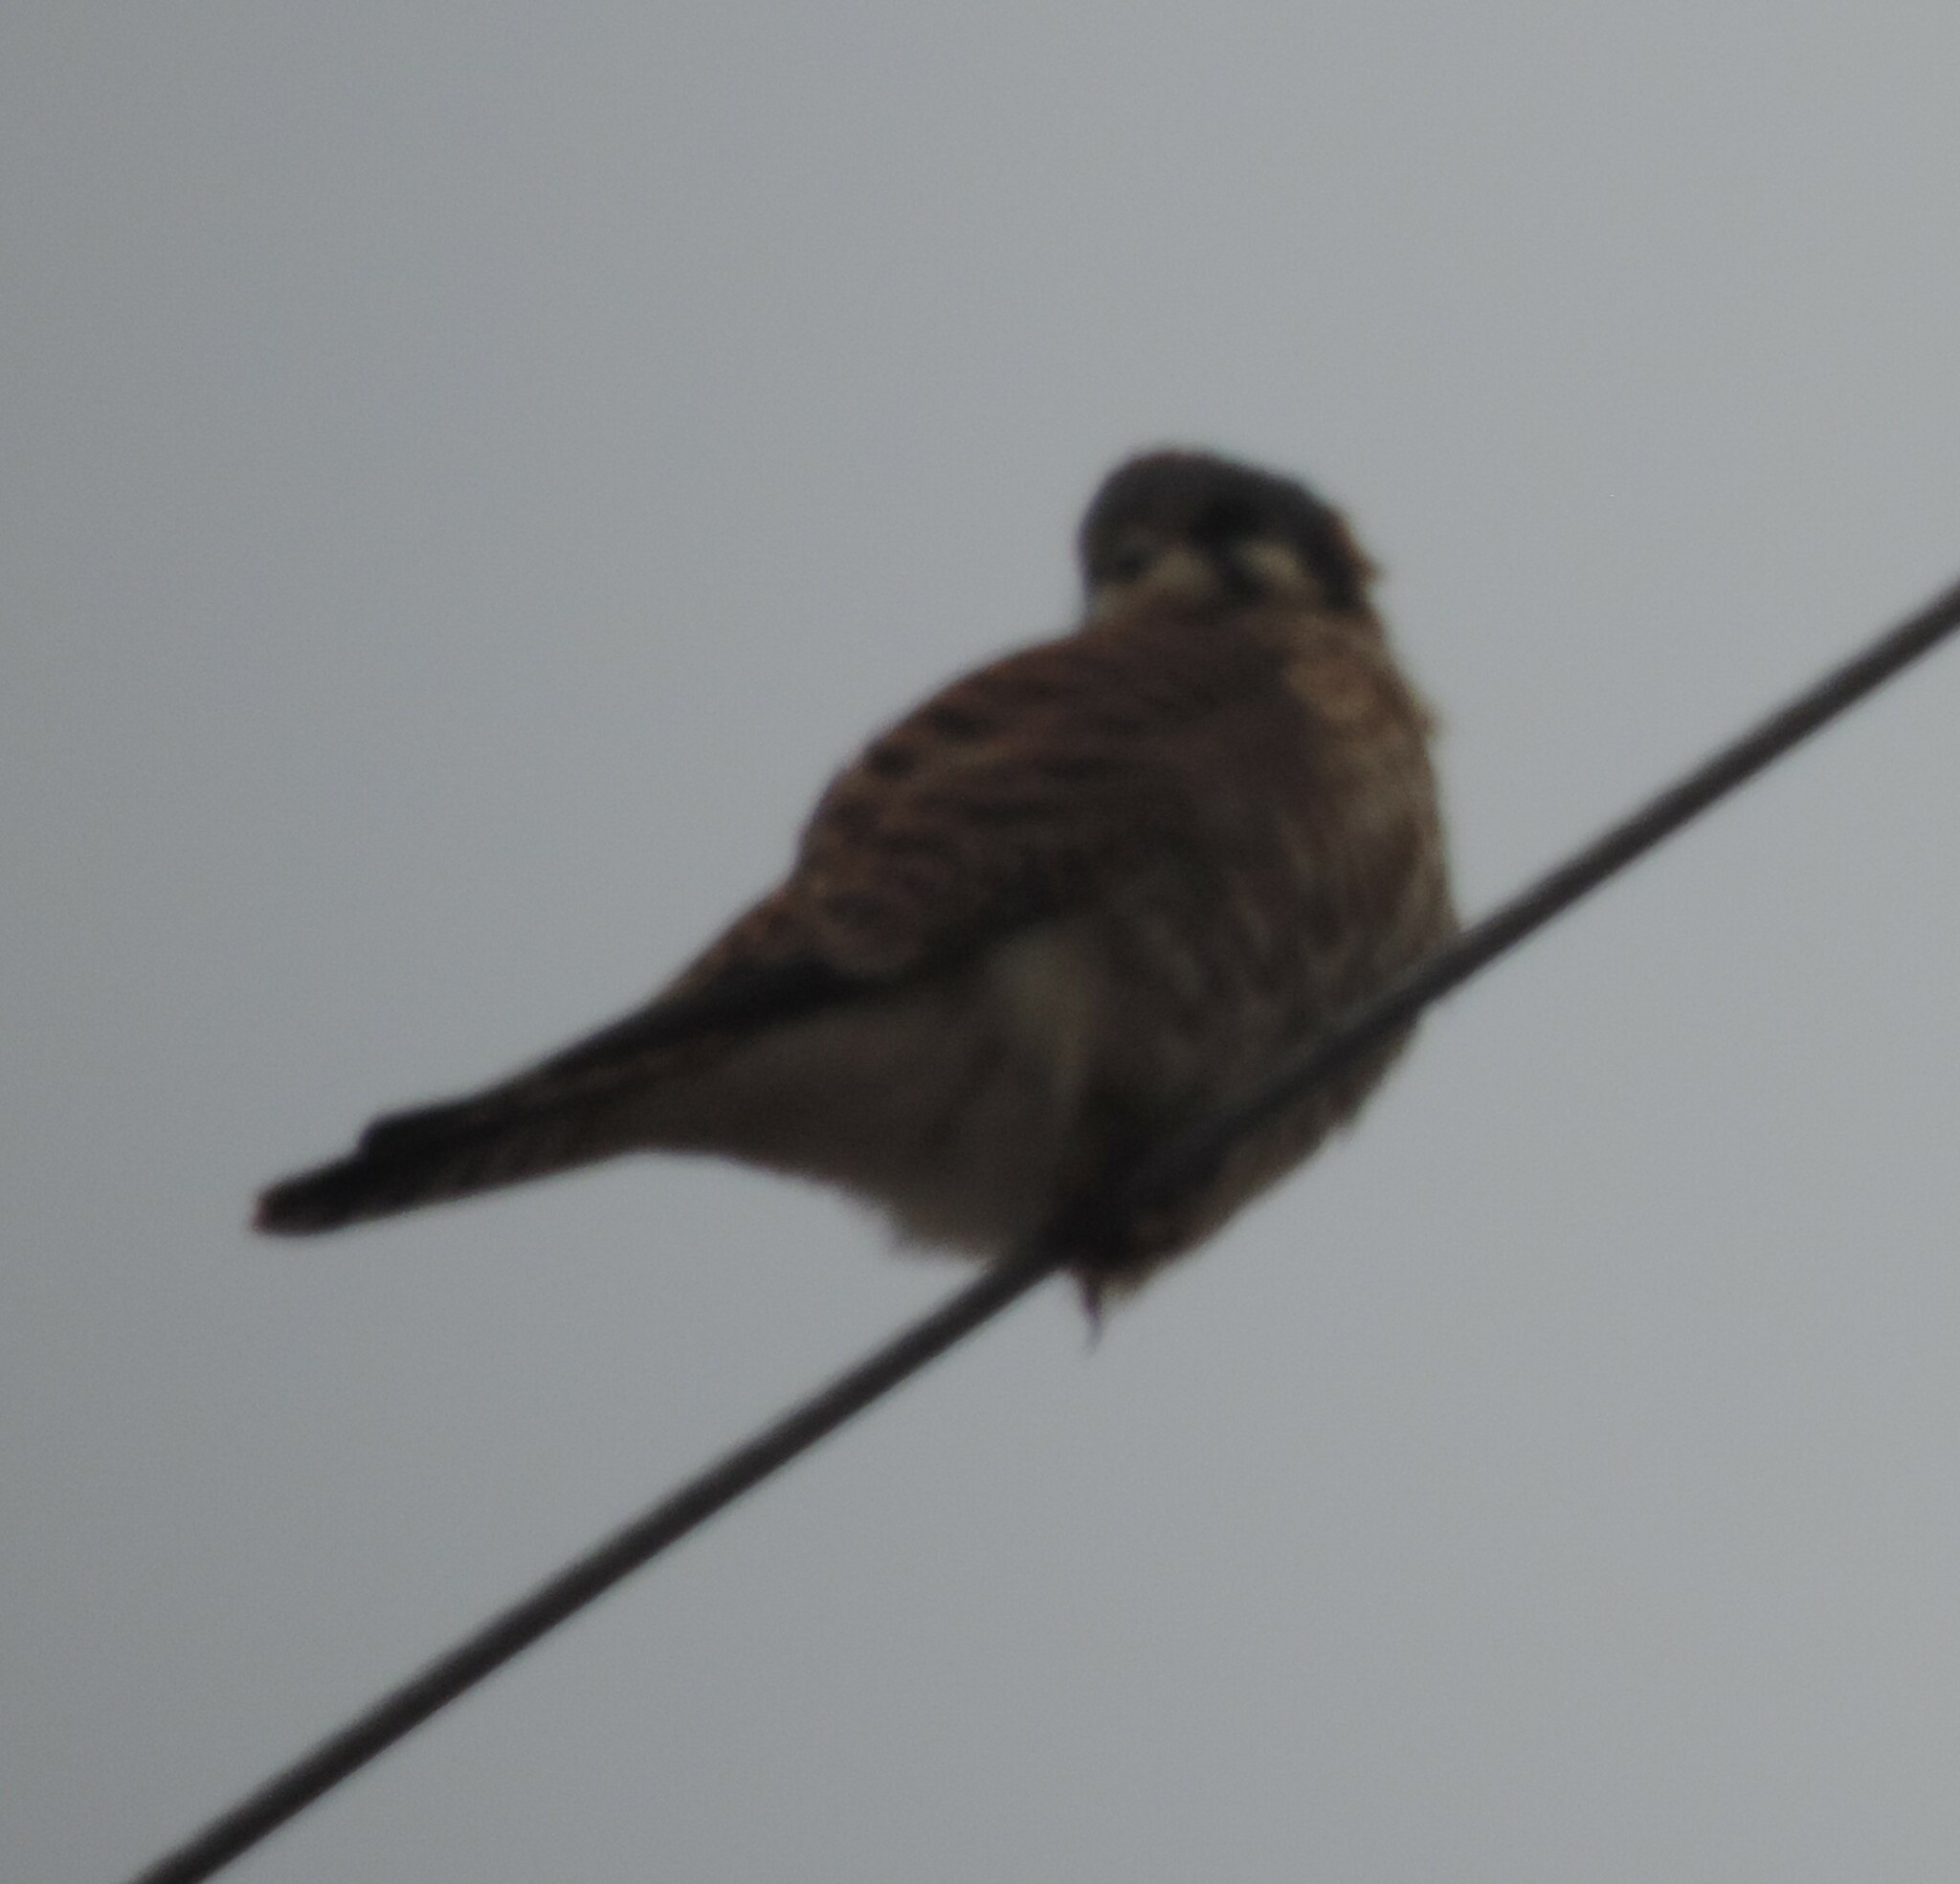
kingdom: Animalia
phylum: Chordata
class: Aves
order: Falconiformes
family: Falconidae
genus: Falco
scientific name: Falco sparverius
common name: American kestrel
